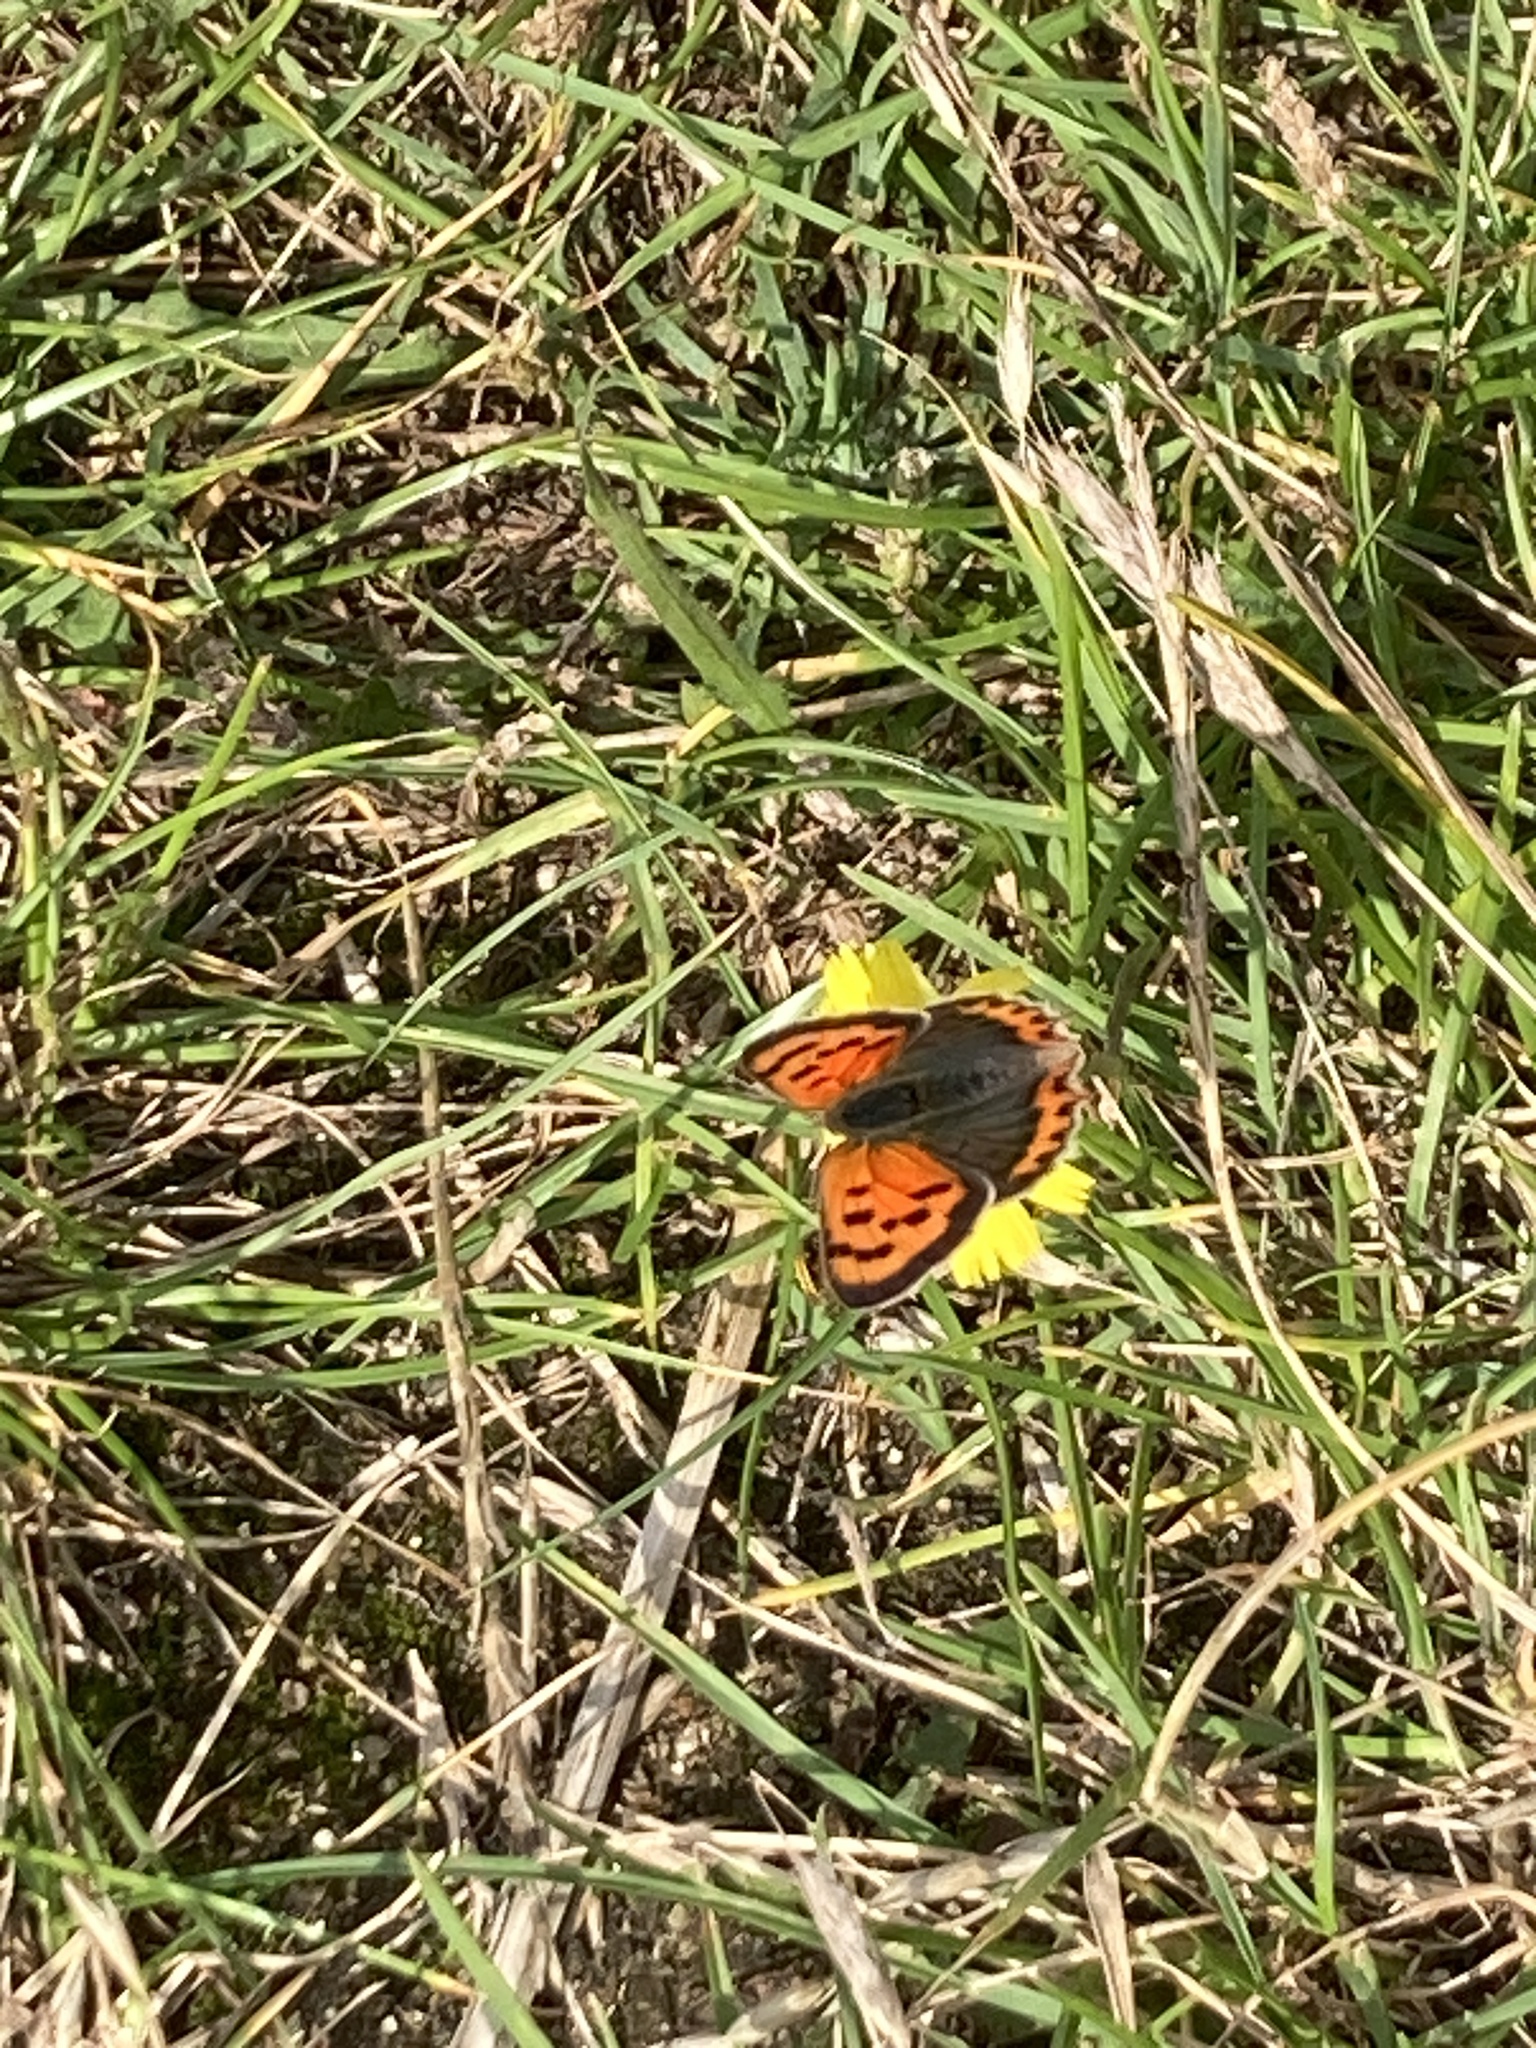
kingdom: Animalia
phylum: Arthropoda
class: Insecta
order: Lepidoptera
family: Lycaenidae
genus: Lycaena
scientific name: Lycaena phlaeas
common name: Small copper
